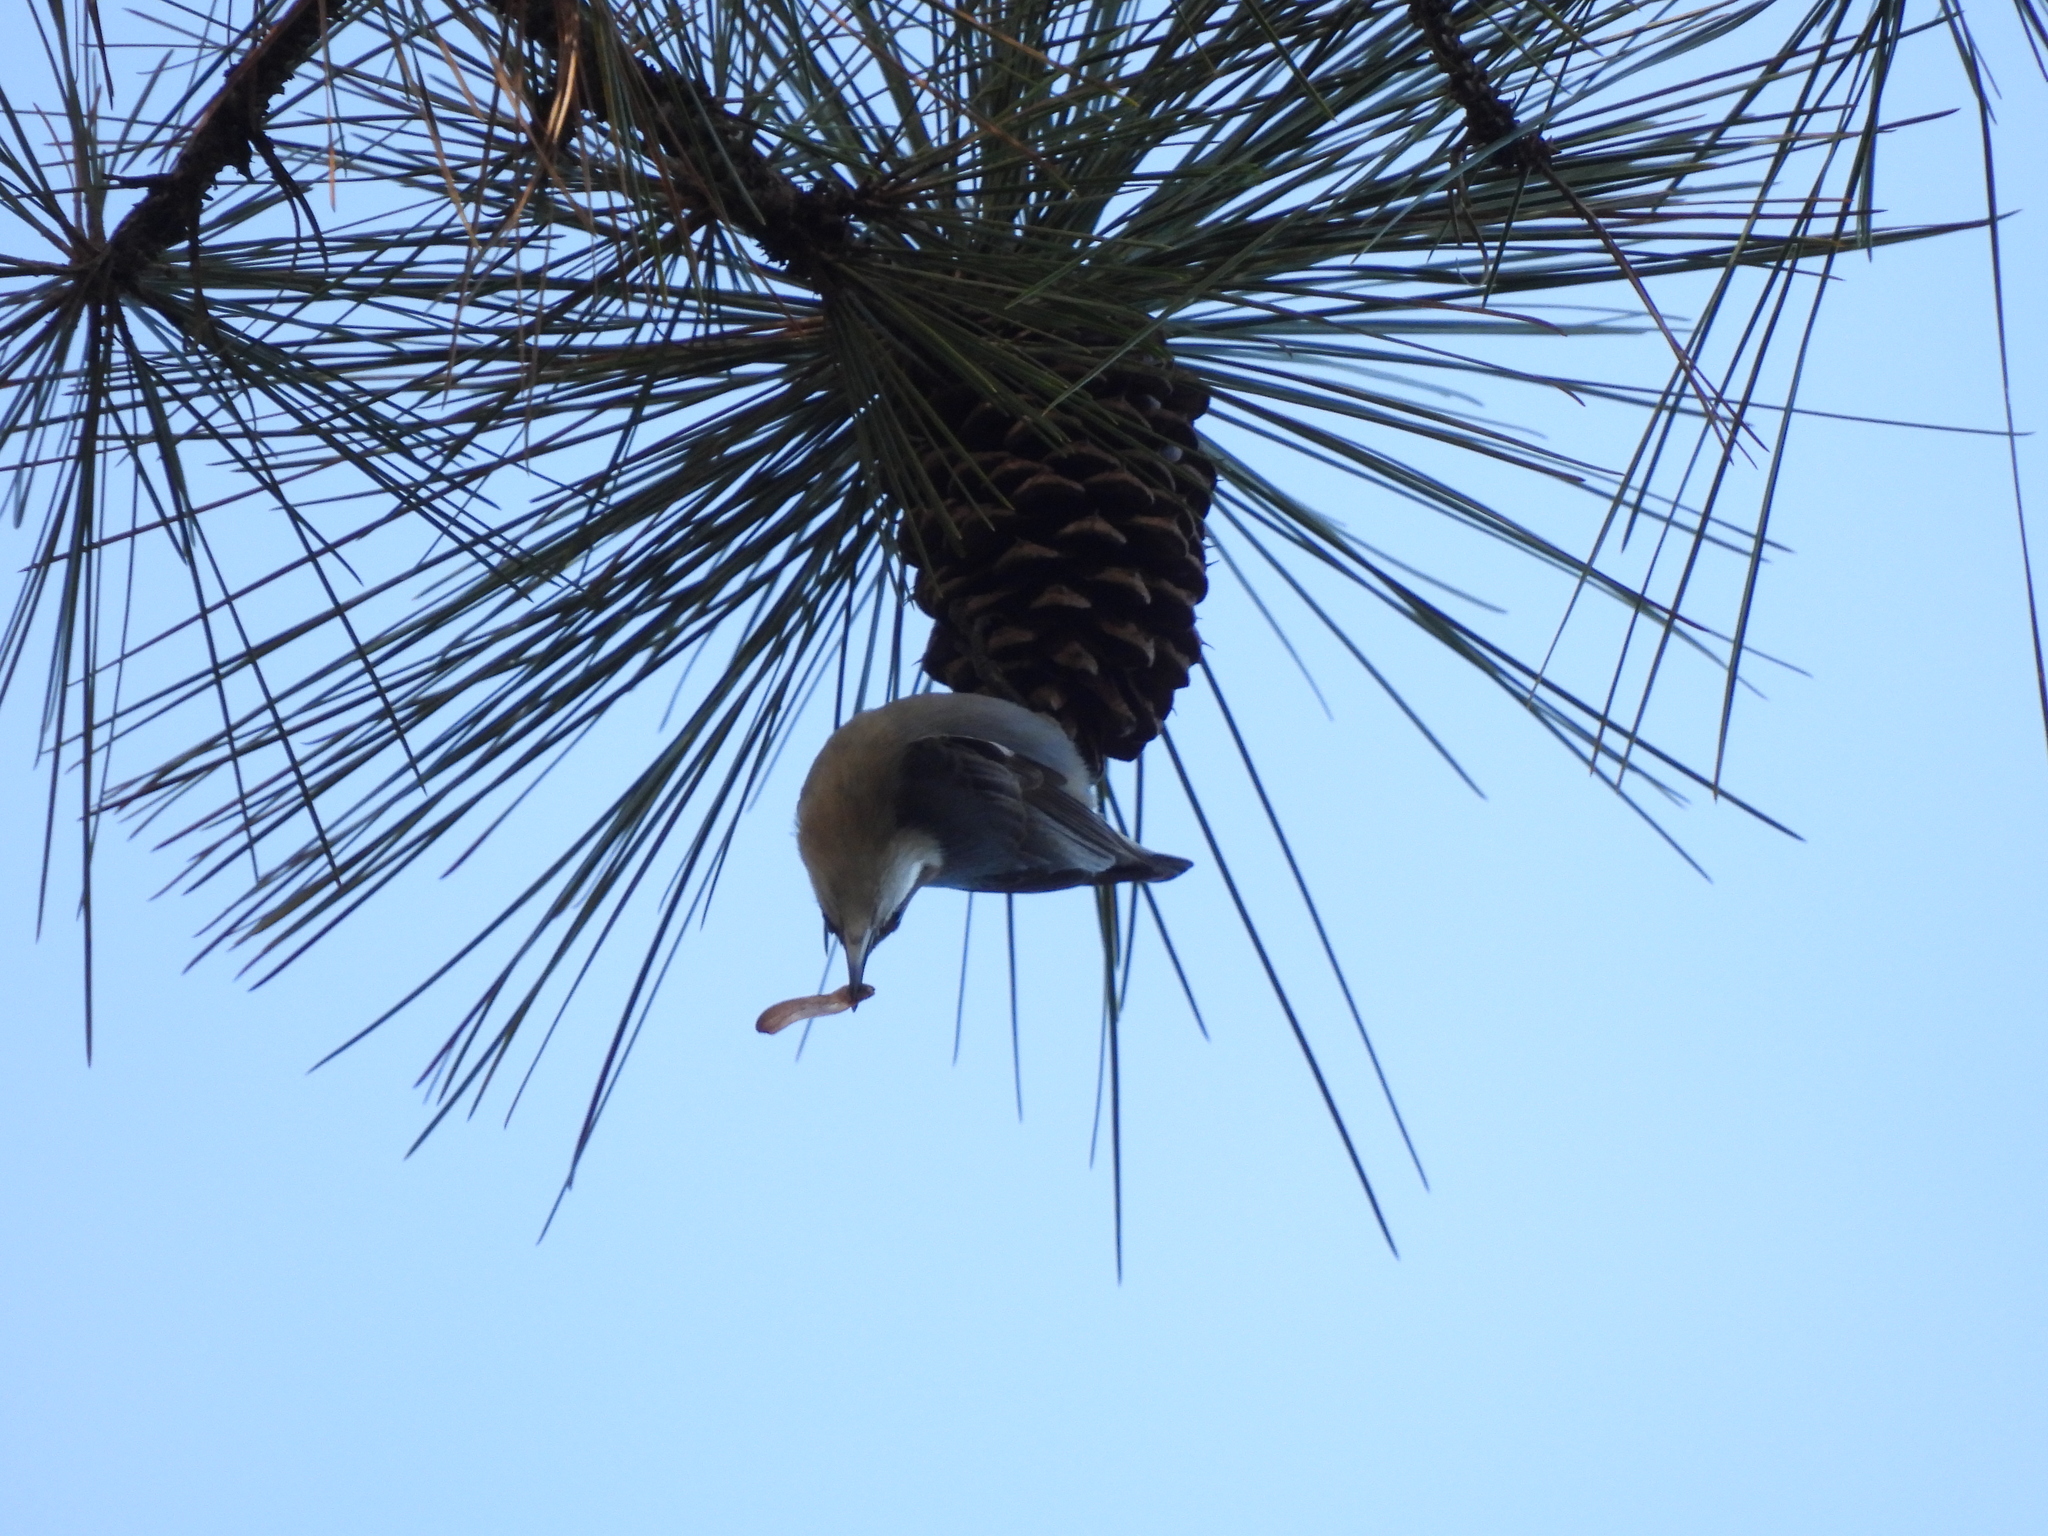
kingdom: Animalia
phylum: Chordata
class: Aves
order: Passeriformes
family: Sittidae
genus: Sitta
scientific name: Sitta pusilla
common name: Brown-headed nuthatch
